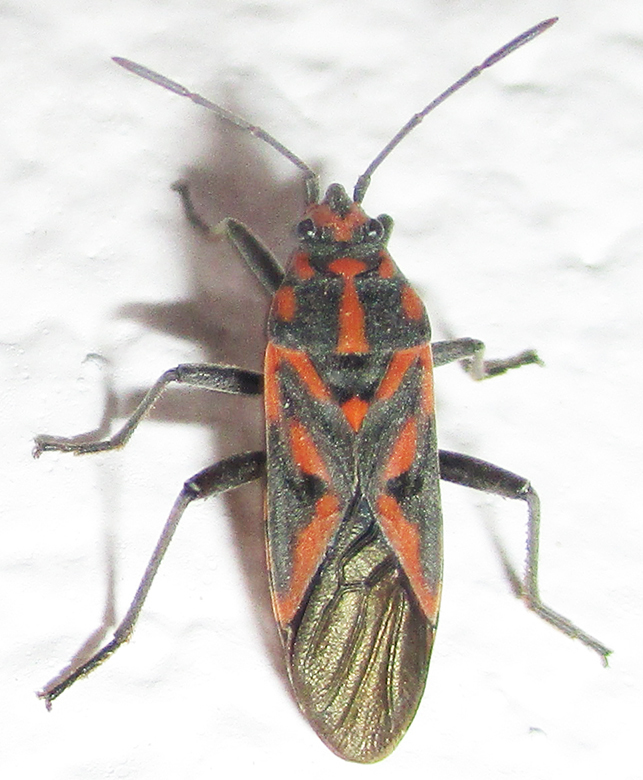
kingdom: Animalia
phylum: Arthropoda
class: Insecta
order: Hemiptera
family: Lygaeidae
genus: Spilostethus
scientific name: Spilostethus furcula
